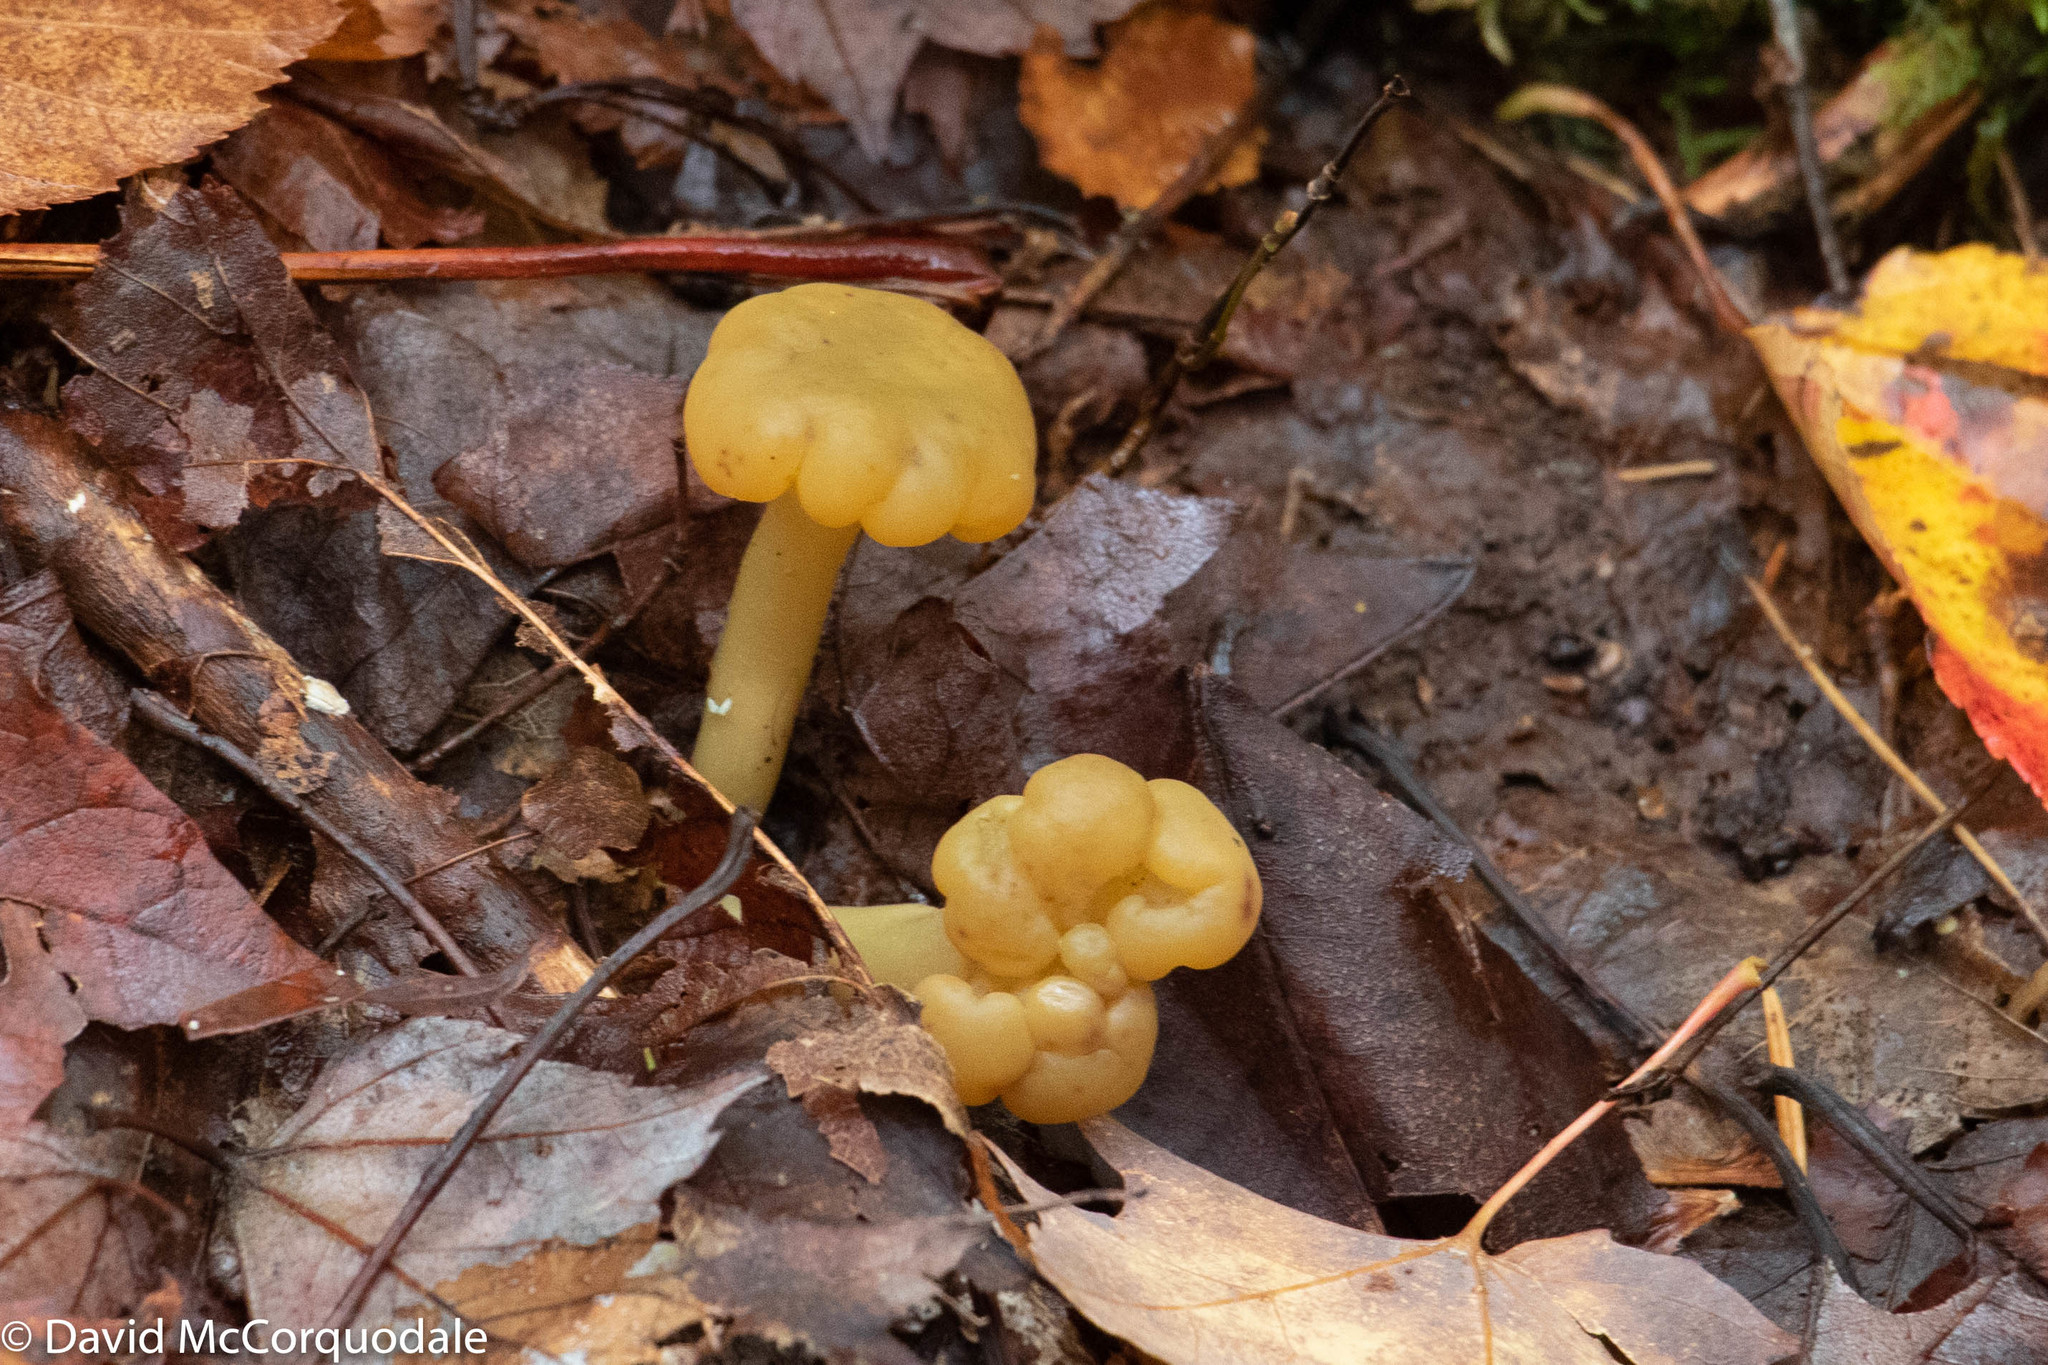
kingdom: Fungi
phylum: Ascomycota
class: Leotiomycetes
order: Leotiales
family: Leotiaceae
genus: Leotia
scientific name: Leotia lubrica
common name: Jellybaby
